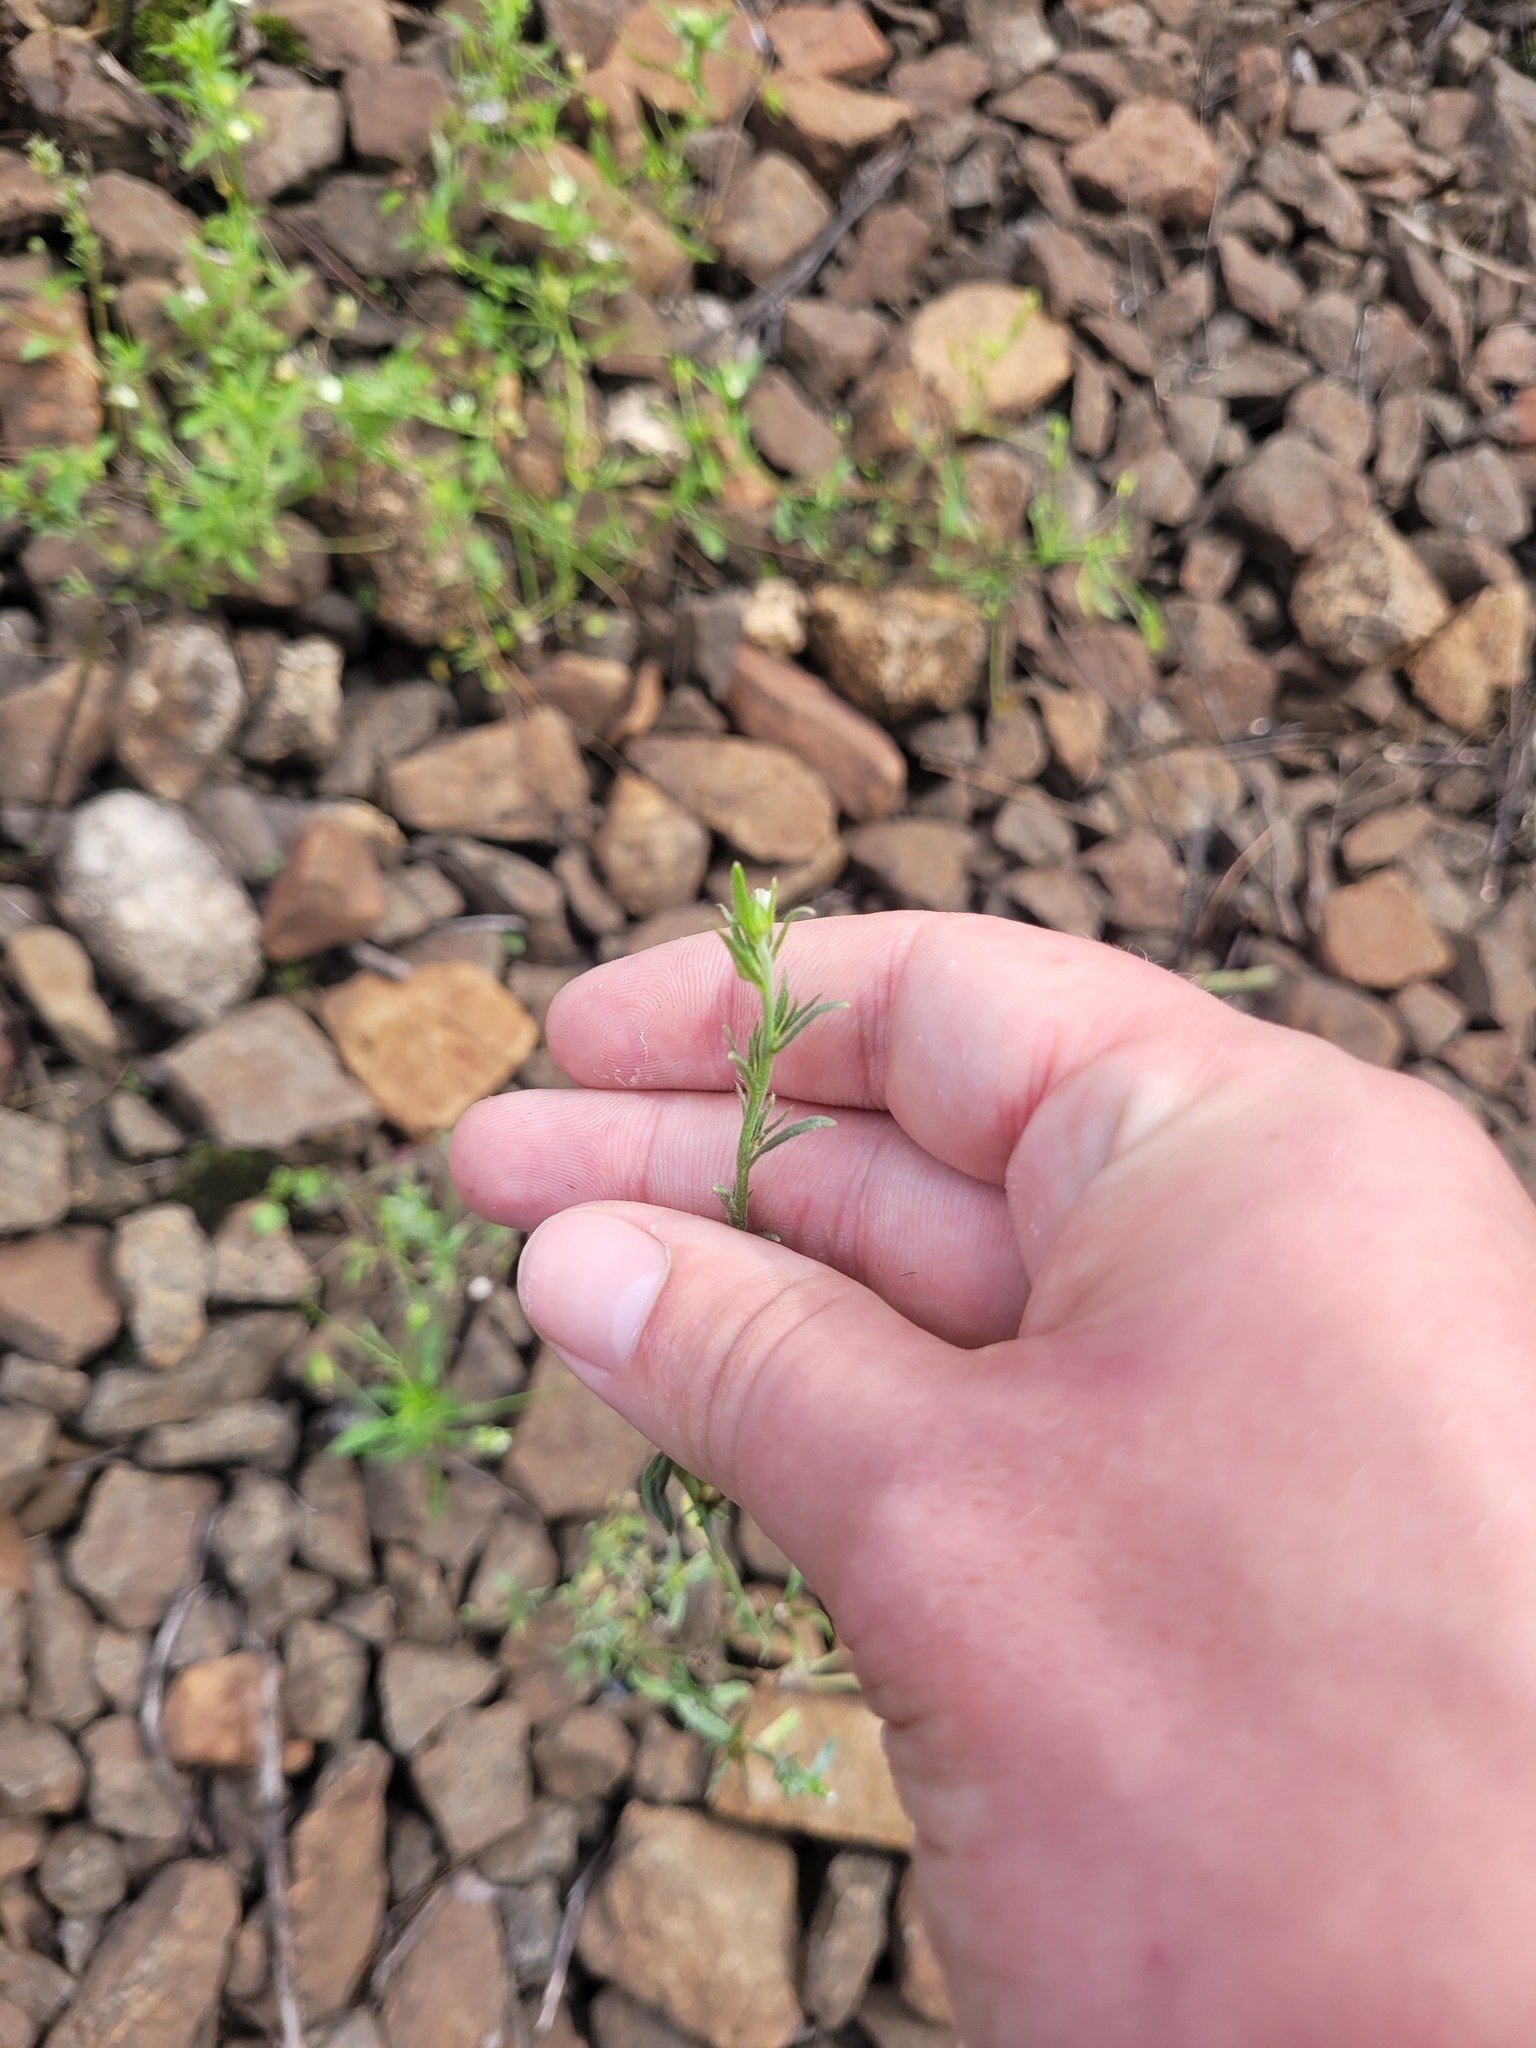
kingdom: Plantae
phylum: Tracheophyta
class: Magnoliopsida
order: Boraginales
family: Boraginaceae
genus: Buglossoides
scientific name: Buglossoides arvensis
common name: Corn gromwell
